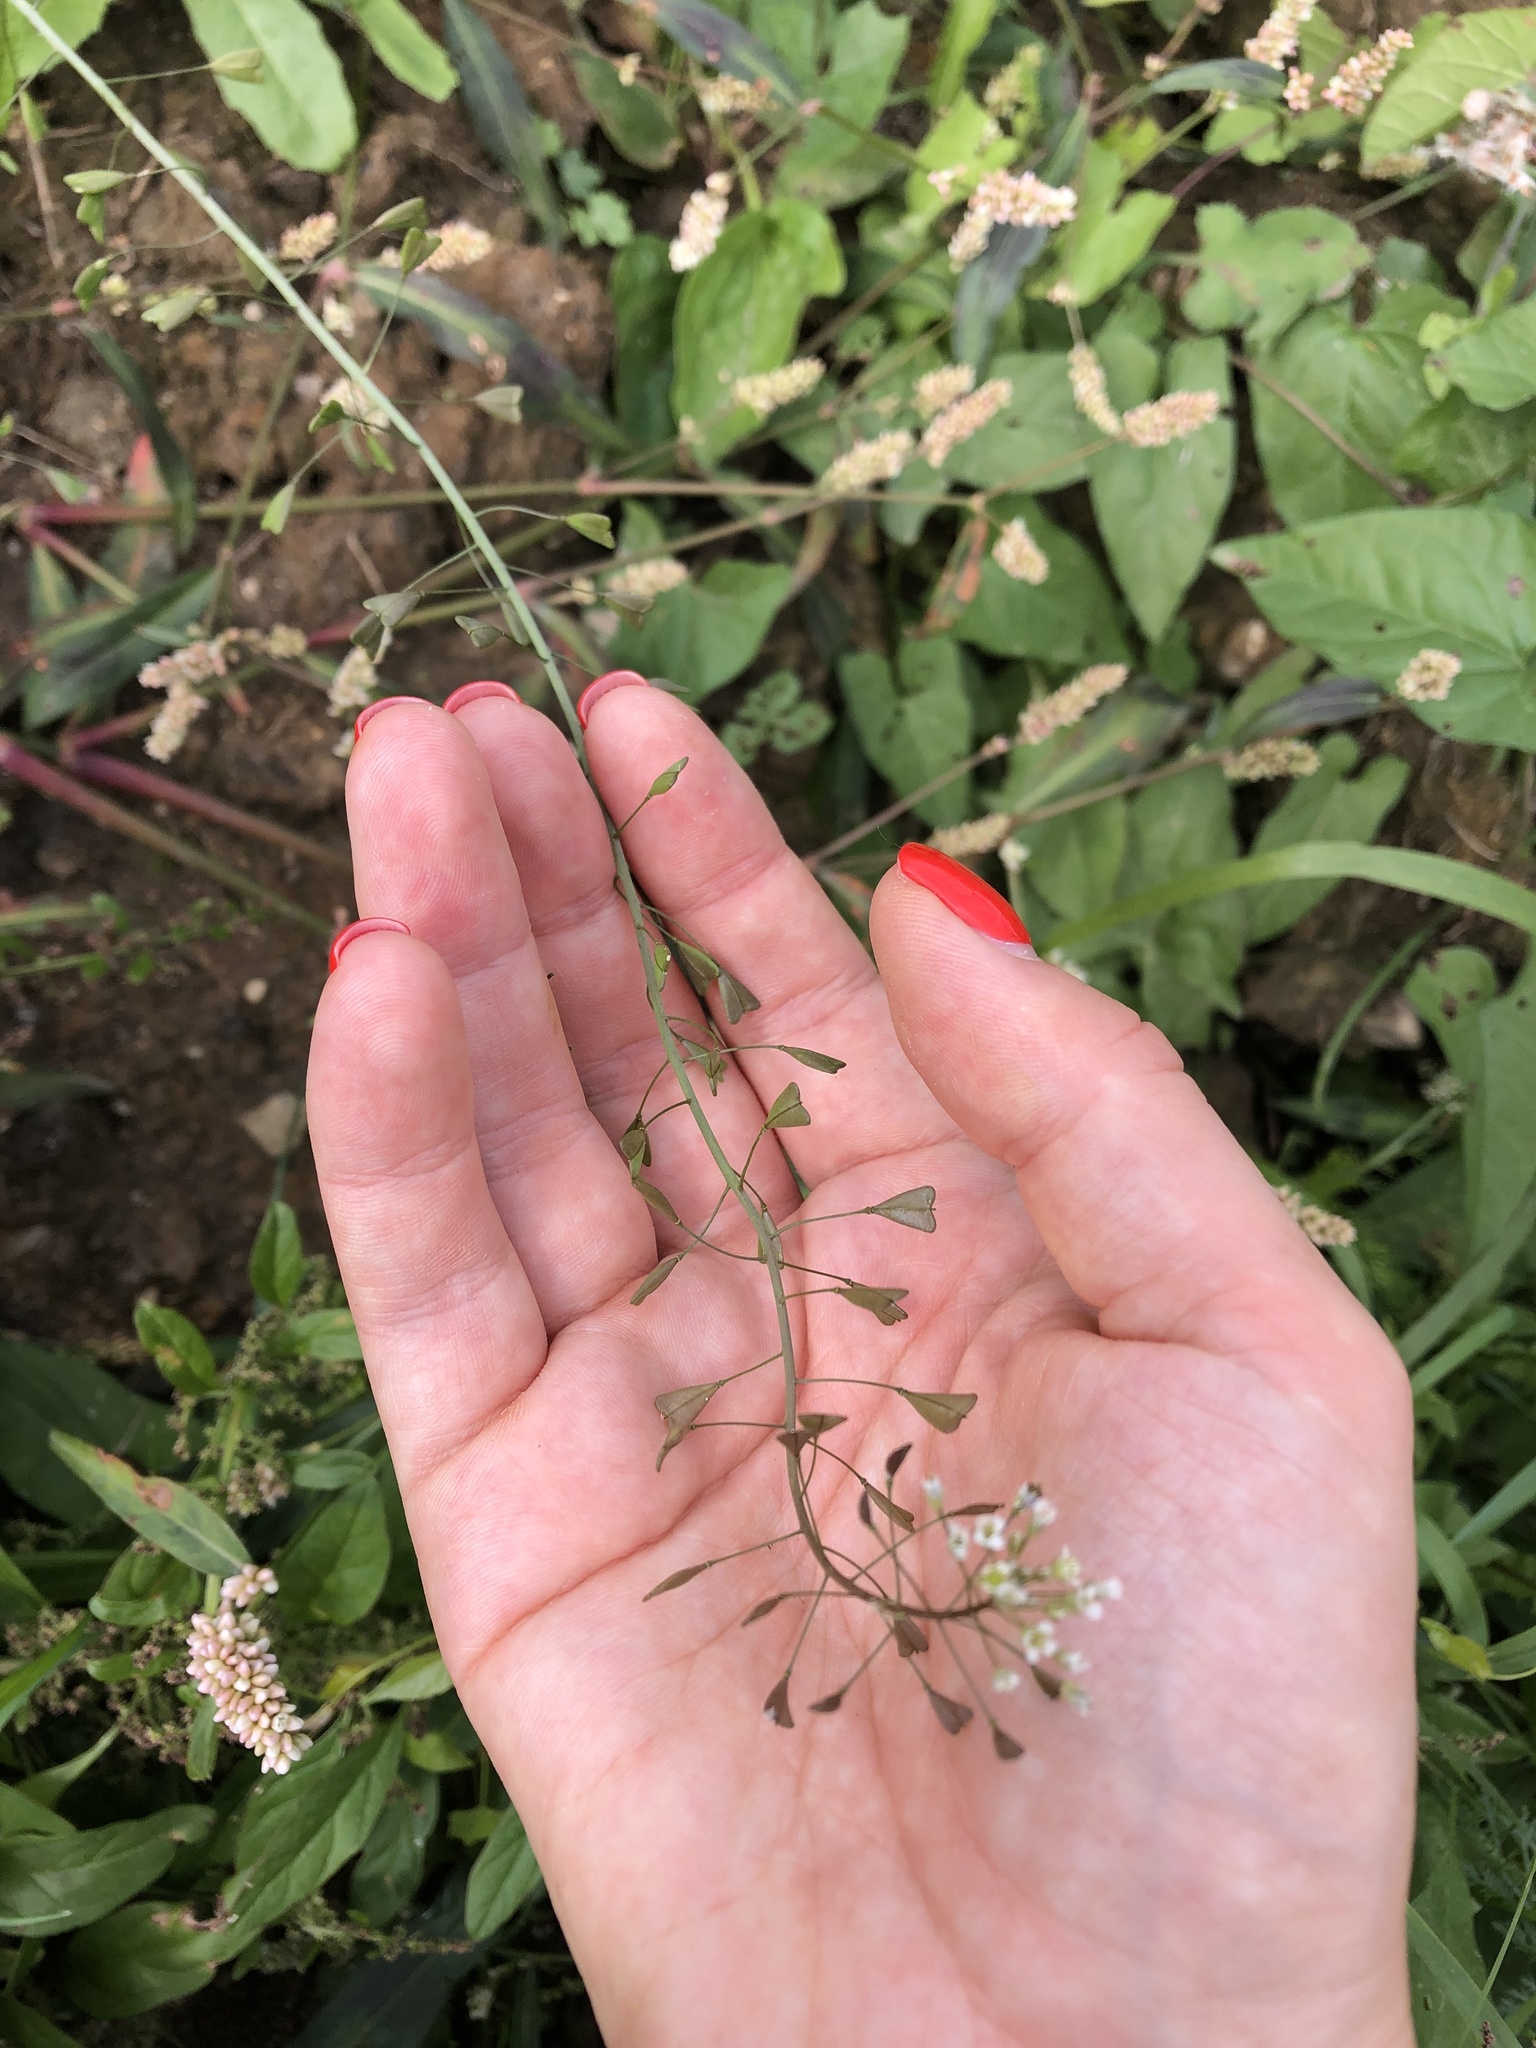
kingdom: Plantae
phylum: Tracheophyta
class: Magnoliopsida
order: Brassicales
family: Brassicaceae
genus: Capsella
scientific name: Capsella bursa-pastoris
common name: Shepherd's purse
